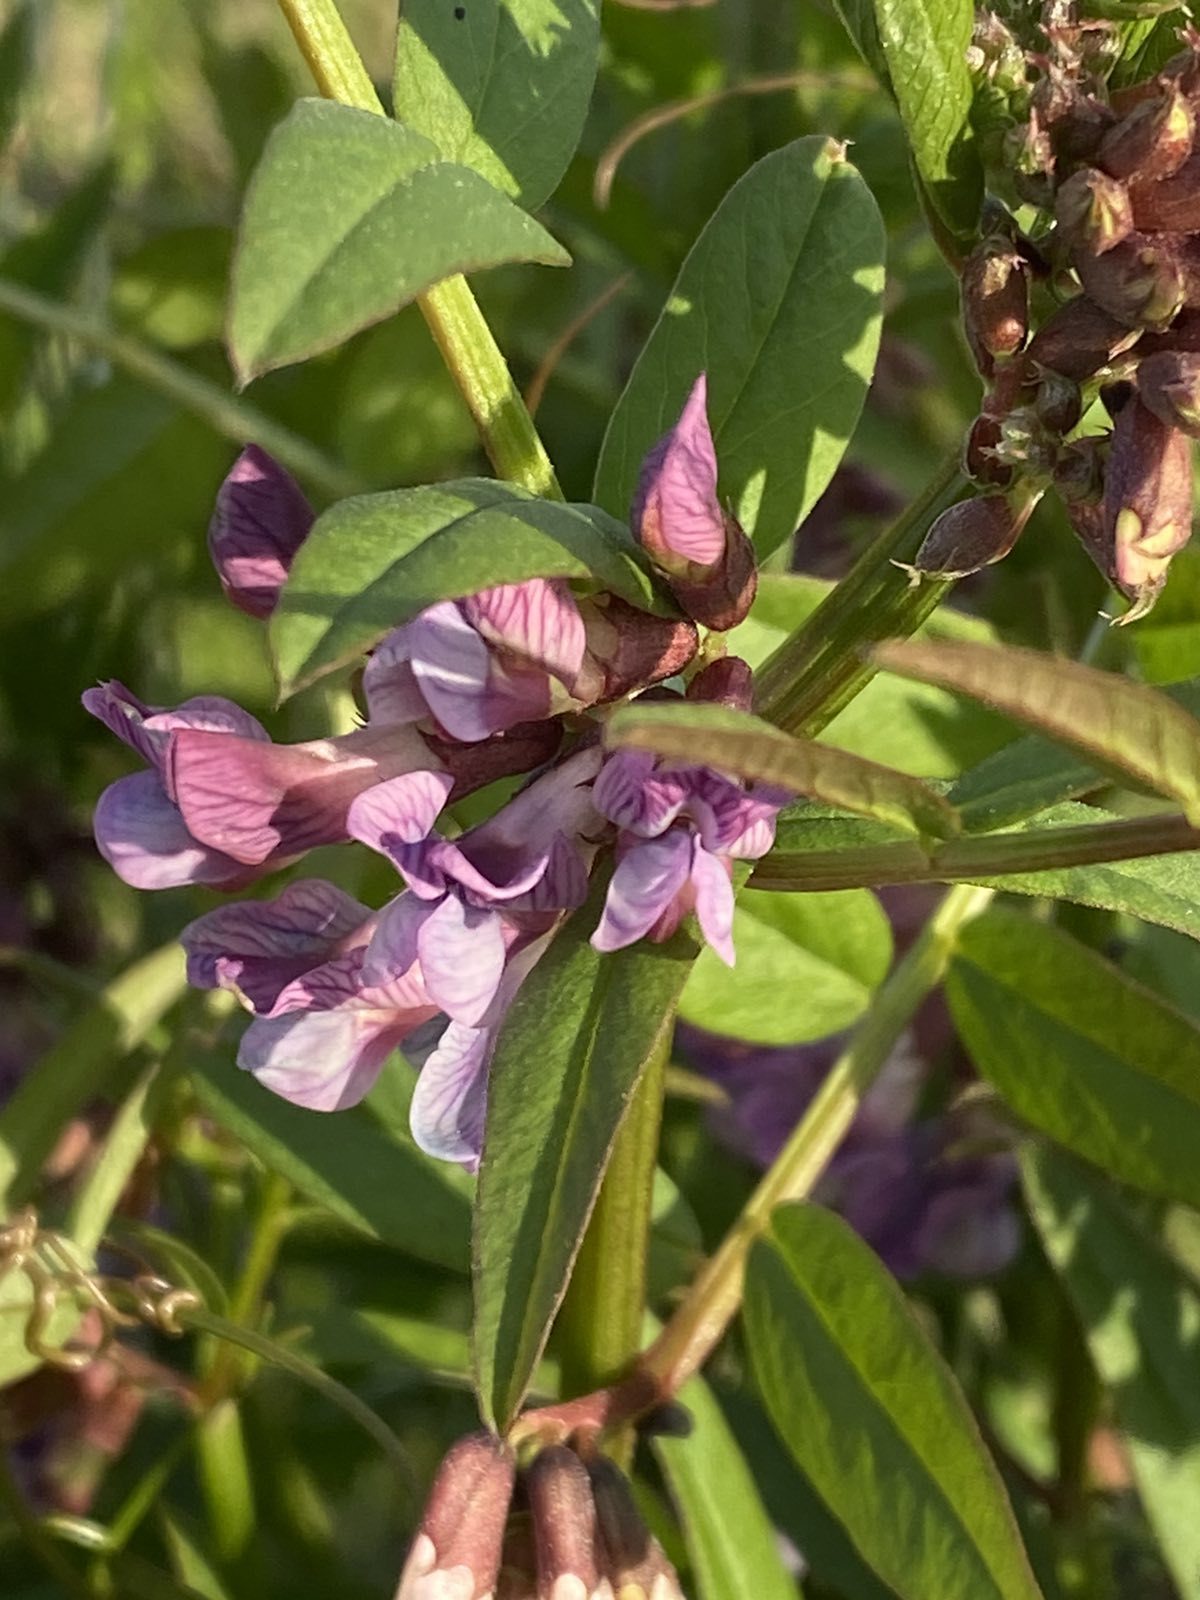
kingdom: Plantae
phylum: Tracheophyta
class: Magnoliopsida
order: Fabales
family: Fabaceae
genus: Vicia
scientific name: Vicia sepium
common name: Bush vetch
